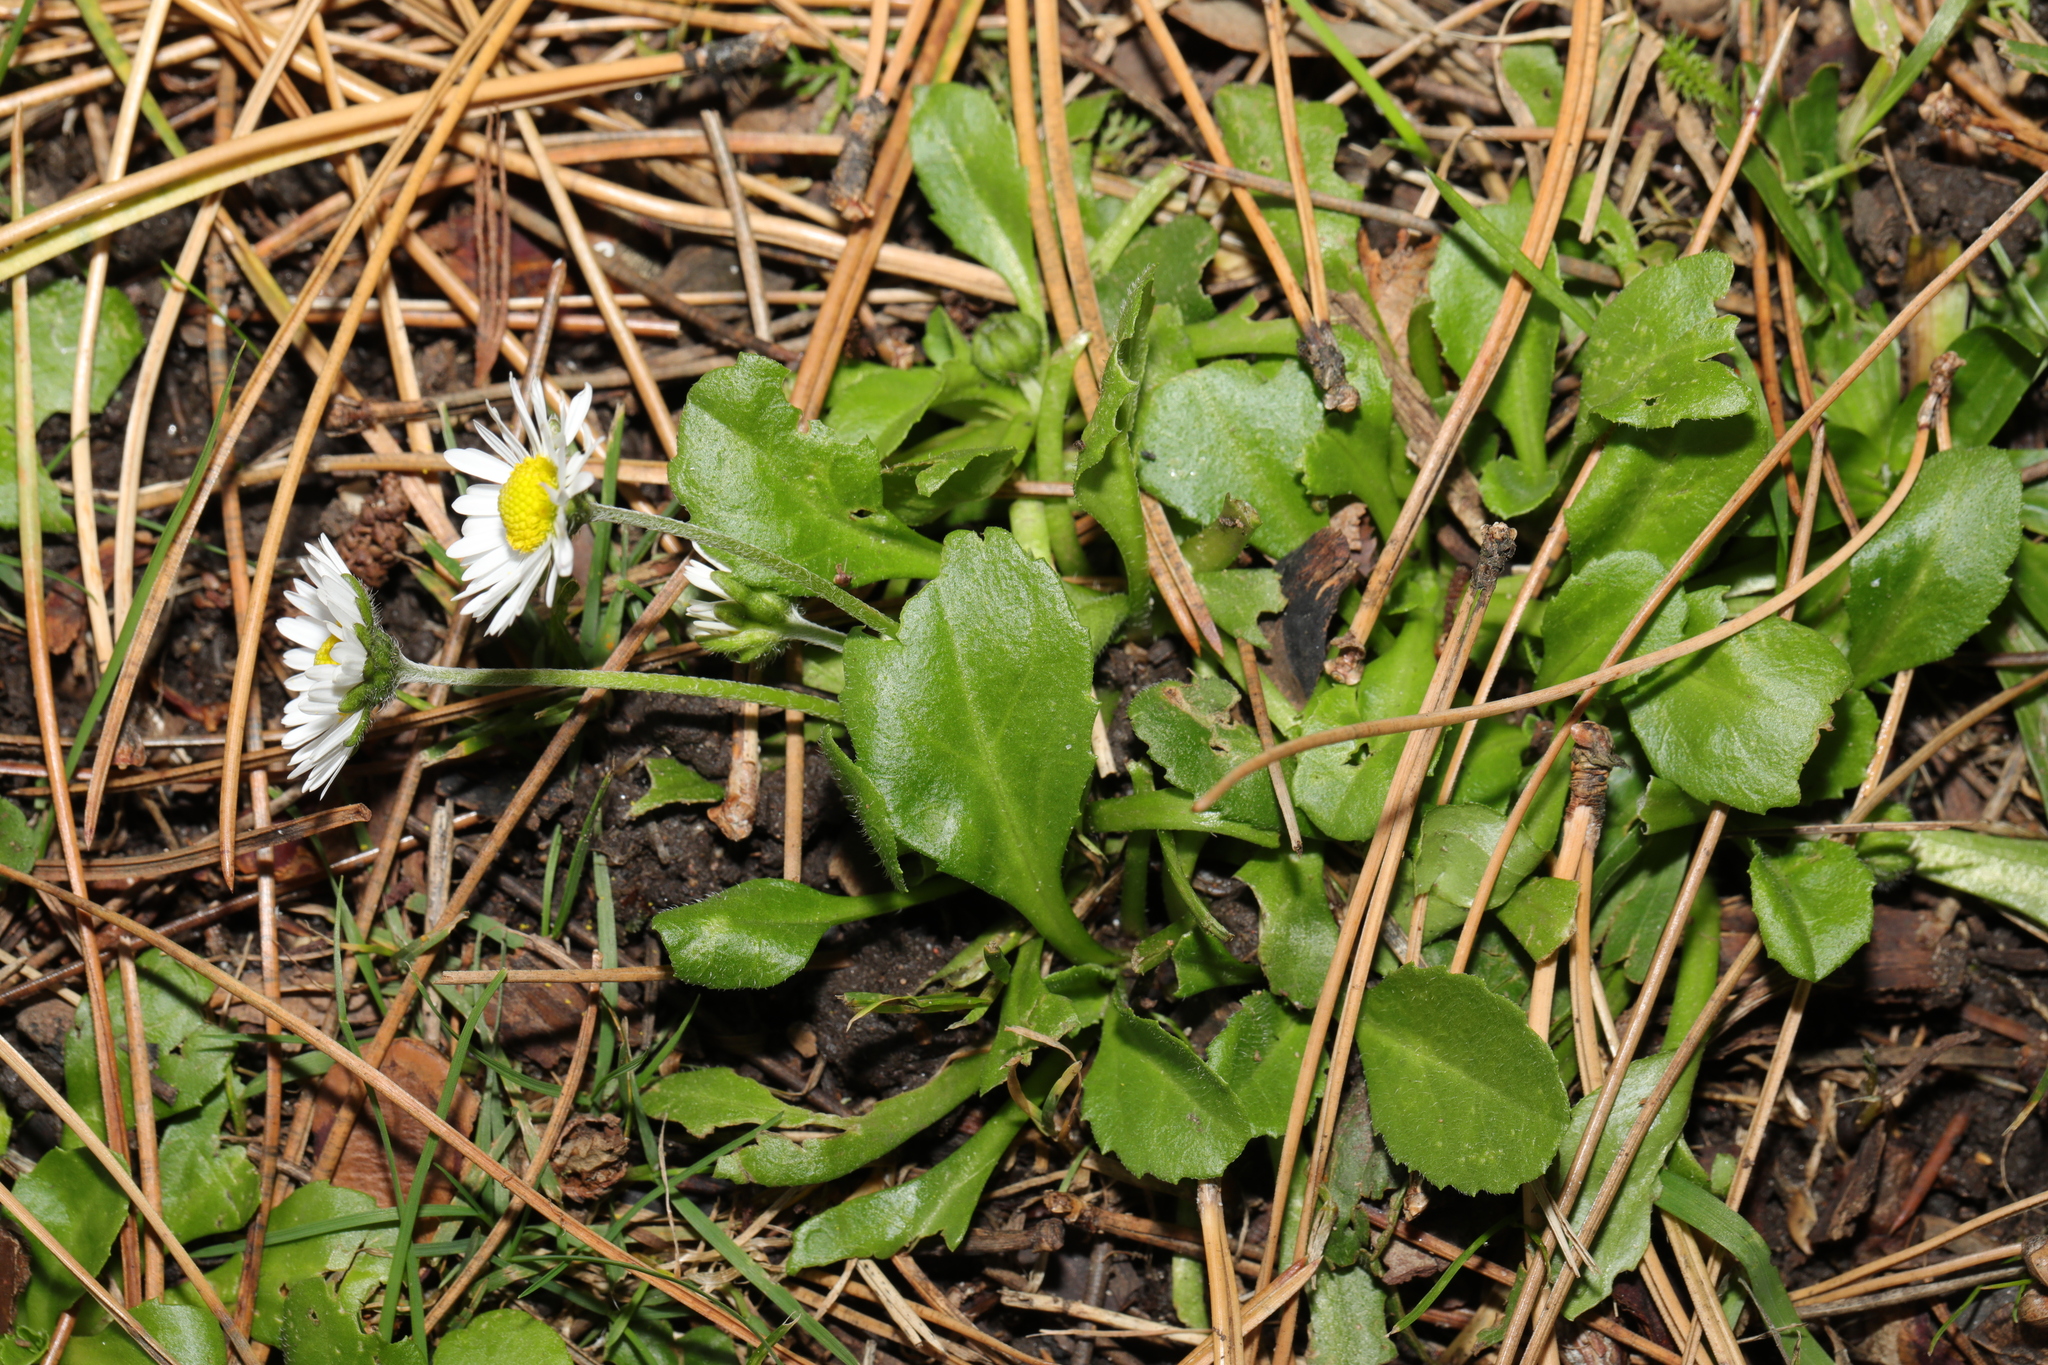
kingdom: Plantae
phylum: Tracheophyta
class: Magnoliopsida
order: Asterales
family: Asteraceae
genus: Bellis
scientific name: Bellis perennis
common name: Lawndaisy
